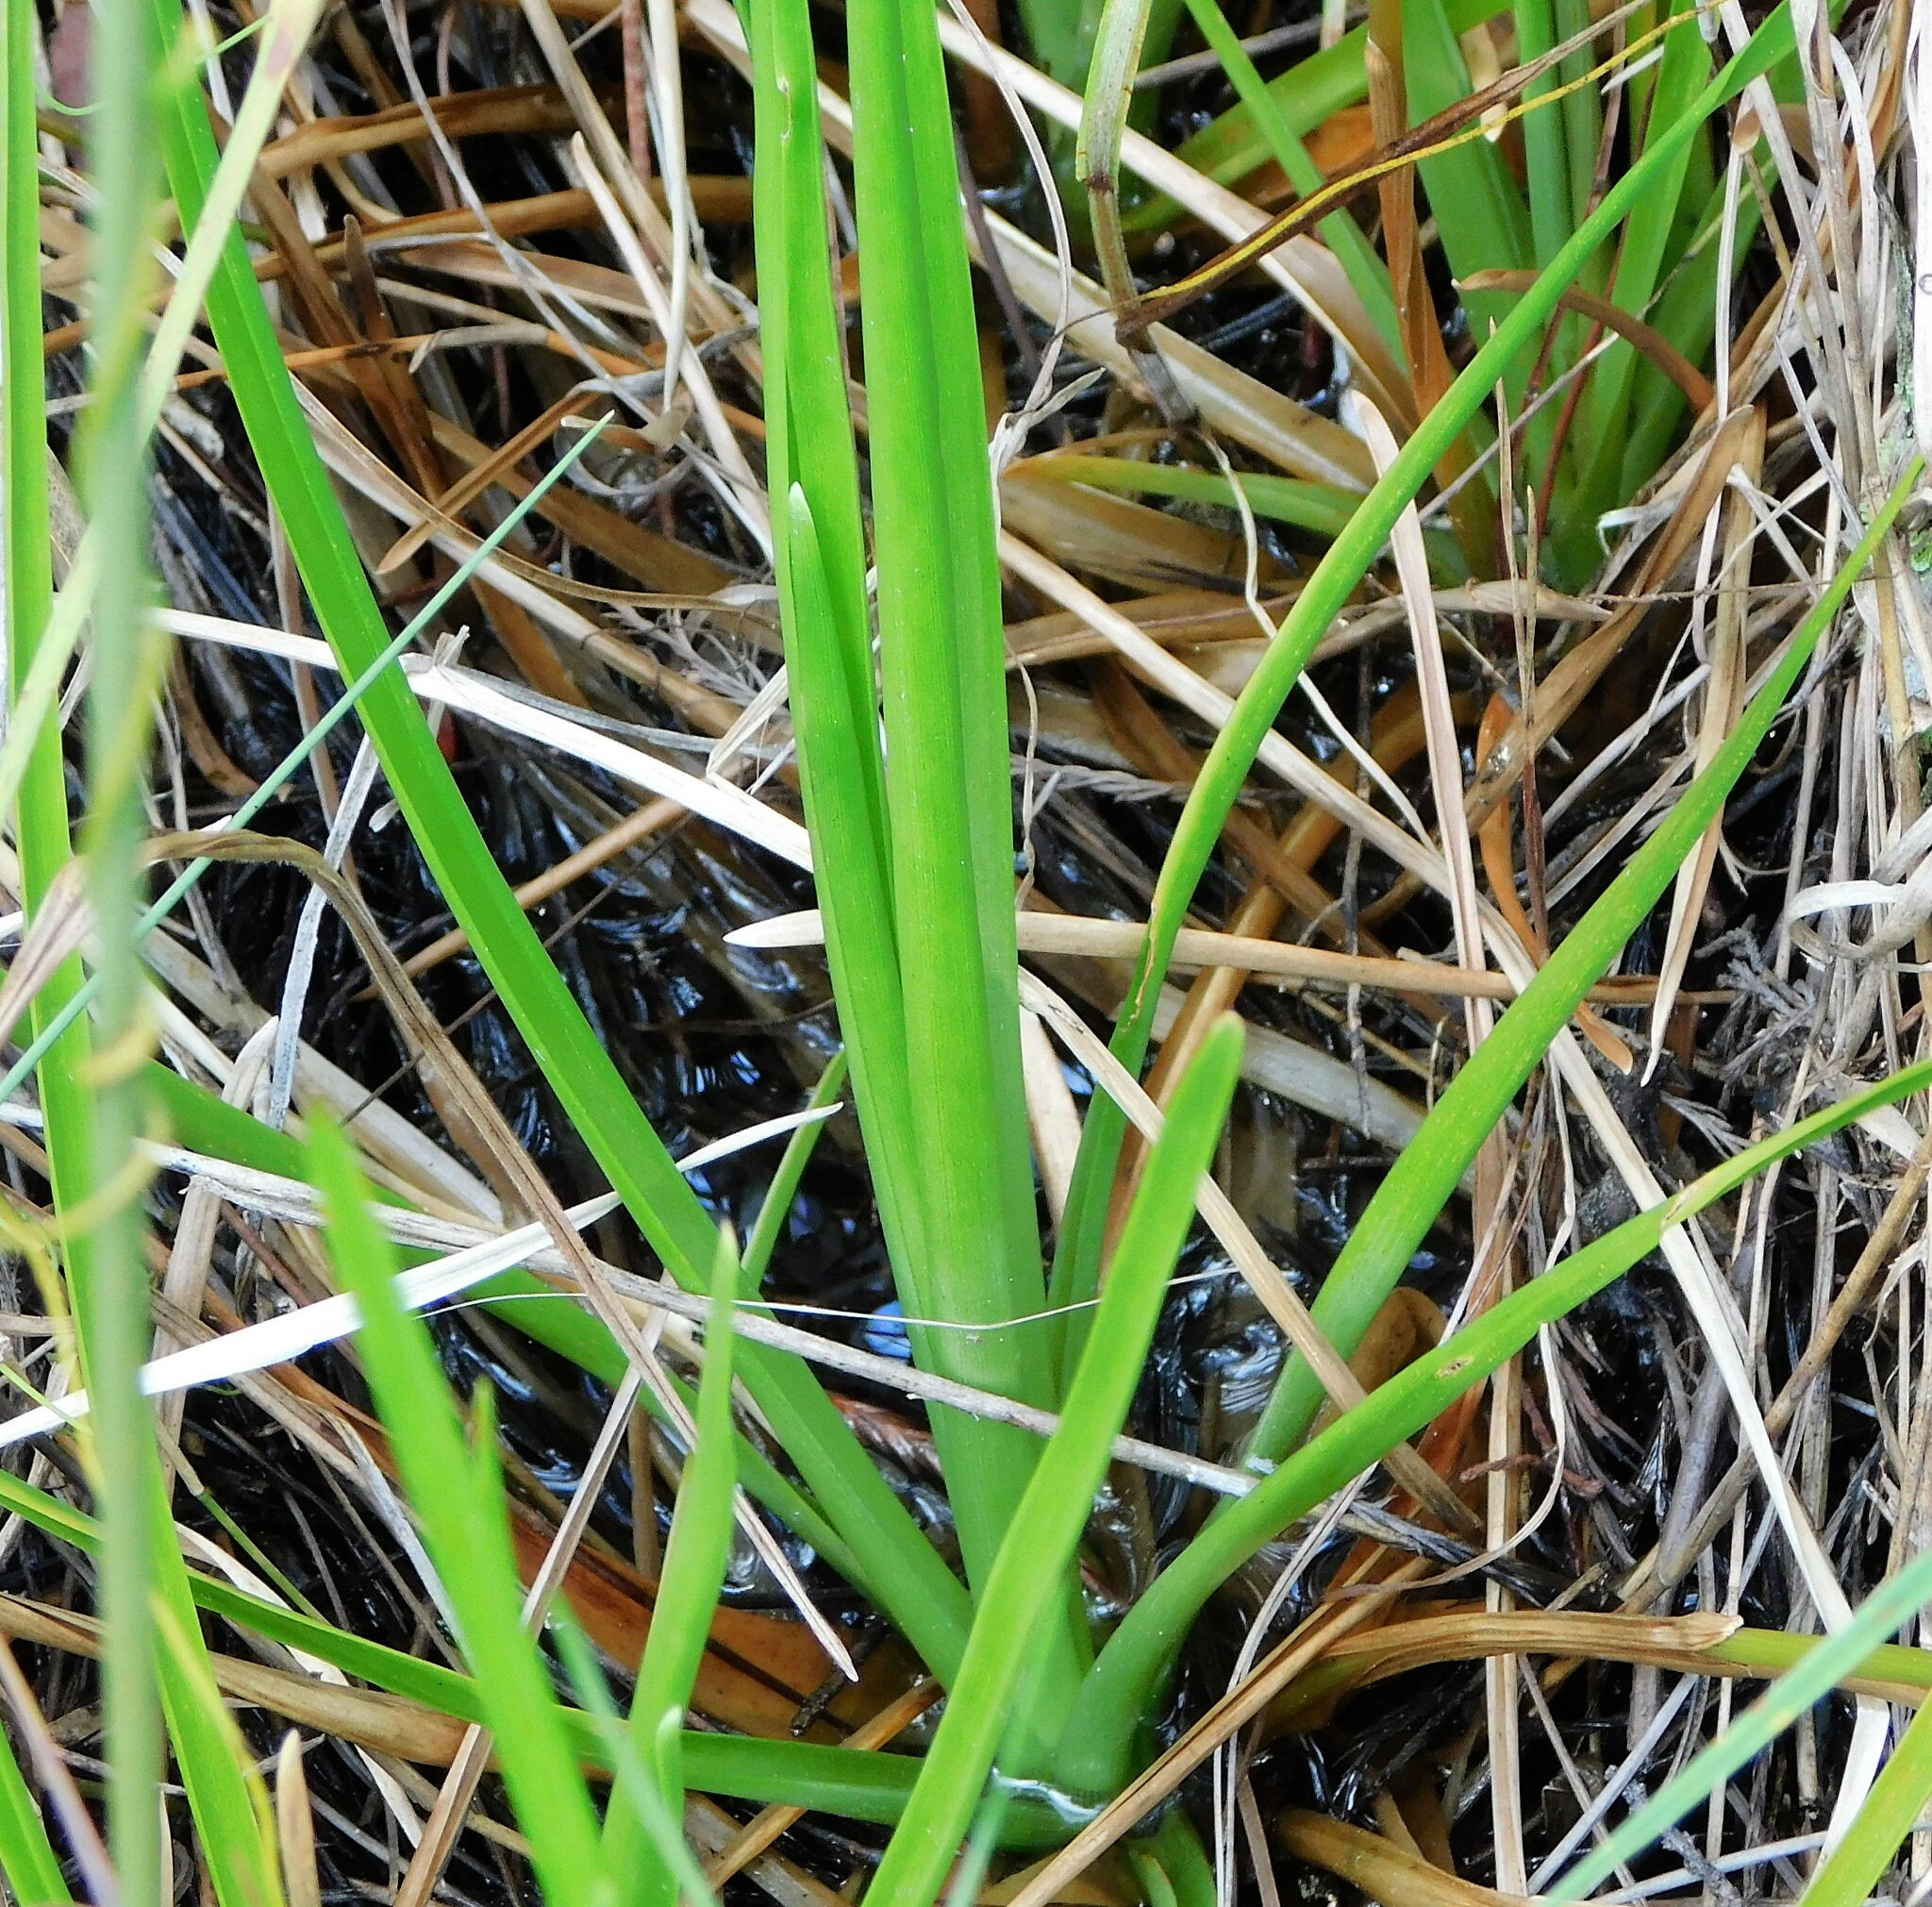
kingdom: Plantae
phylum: Tracheophyta
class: Liliopsida
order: Poales
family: Eriocaulaceae
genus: Eriocaulon
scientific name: Eriocaulon decangulare
